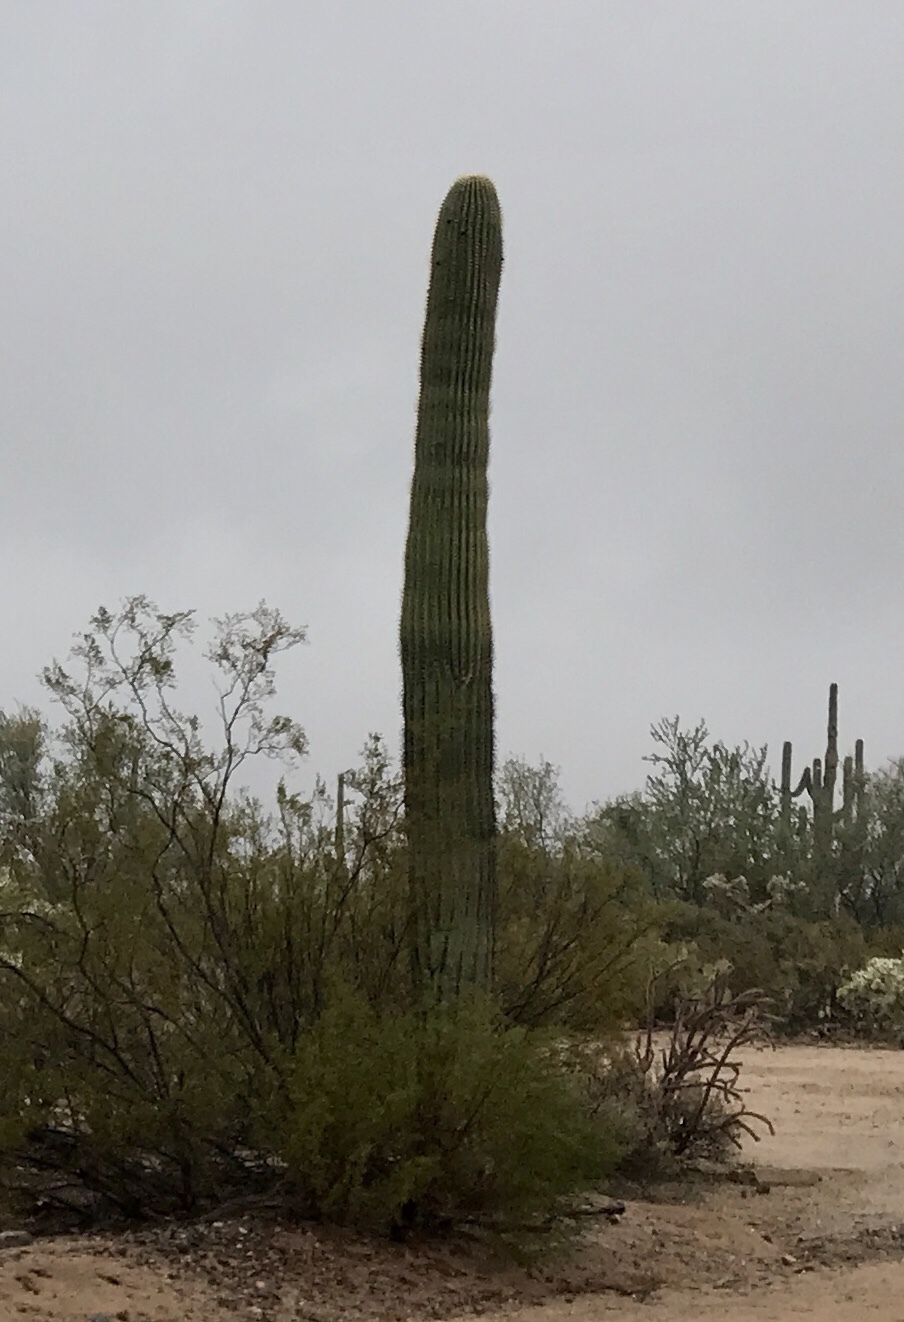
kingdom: Plantae
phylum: Tracheophyta
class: Magnoliopsida
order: Caryophyllales
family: Cactaceae
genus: Carnegiea
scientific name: Carnegiea gigantea
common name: Saguaro
